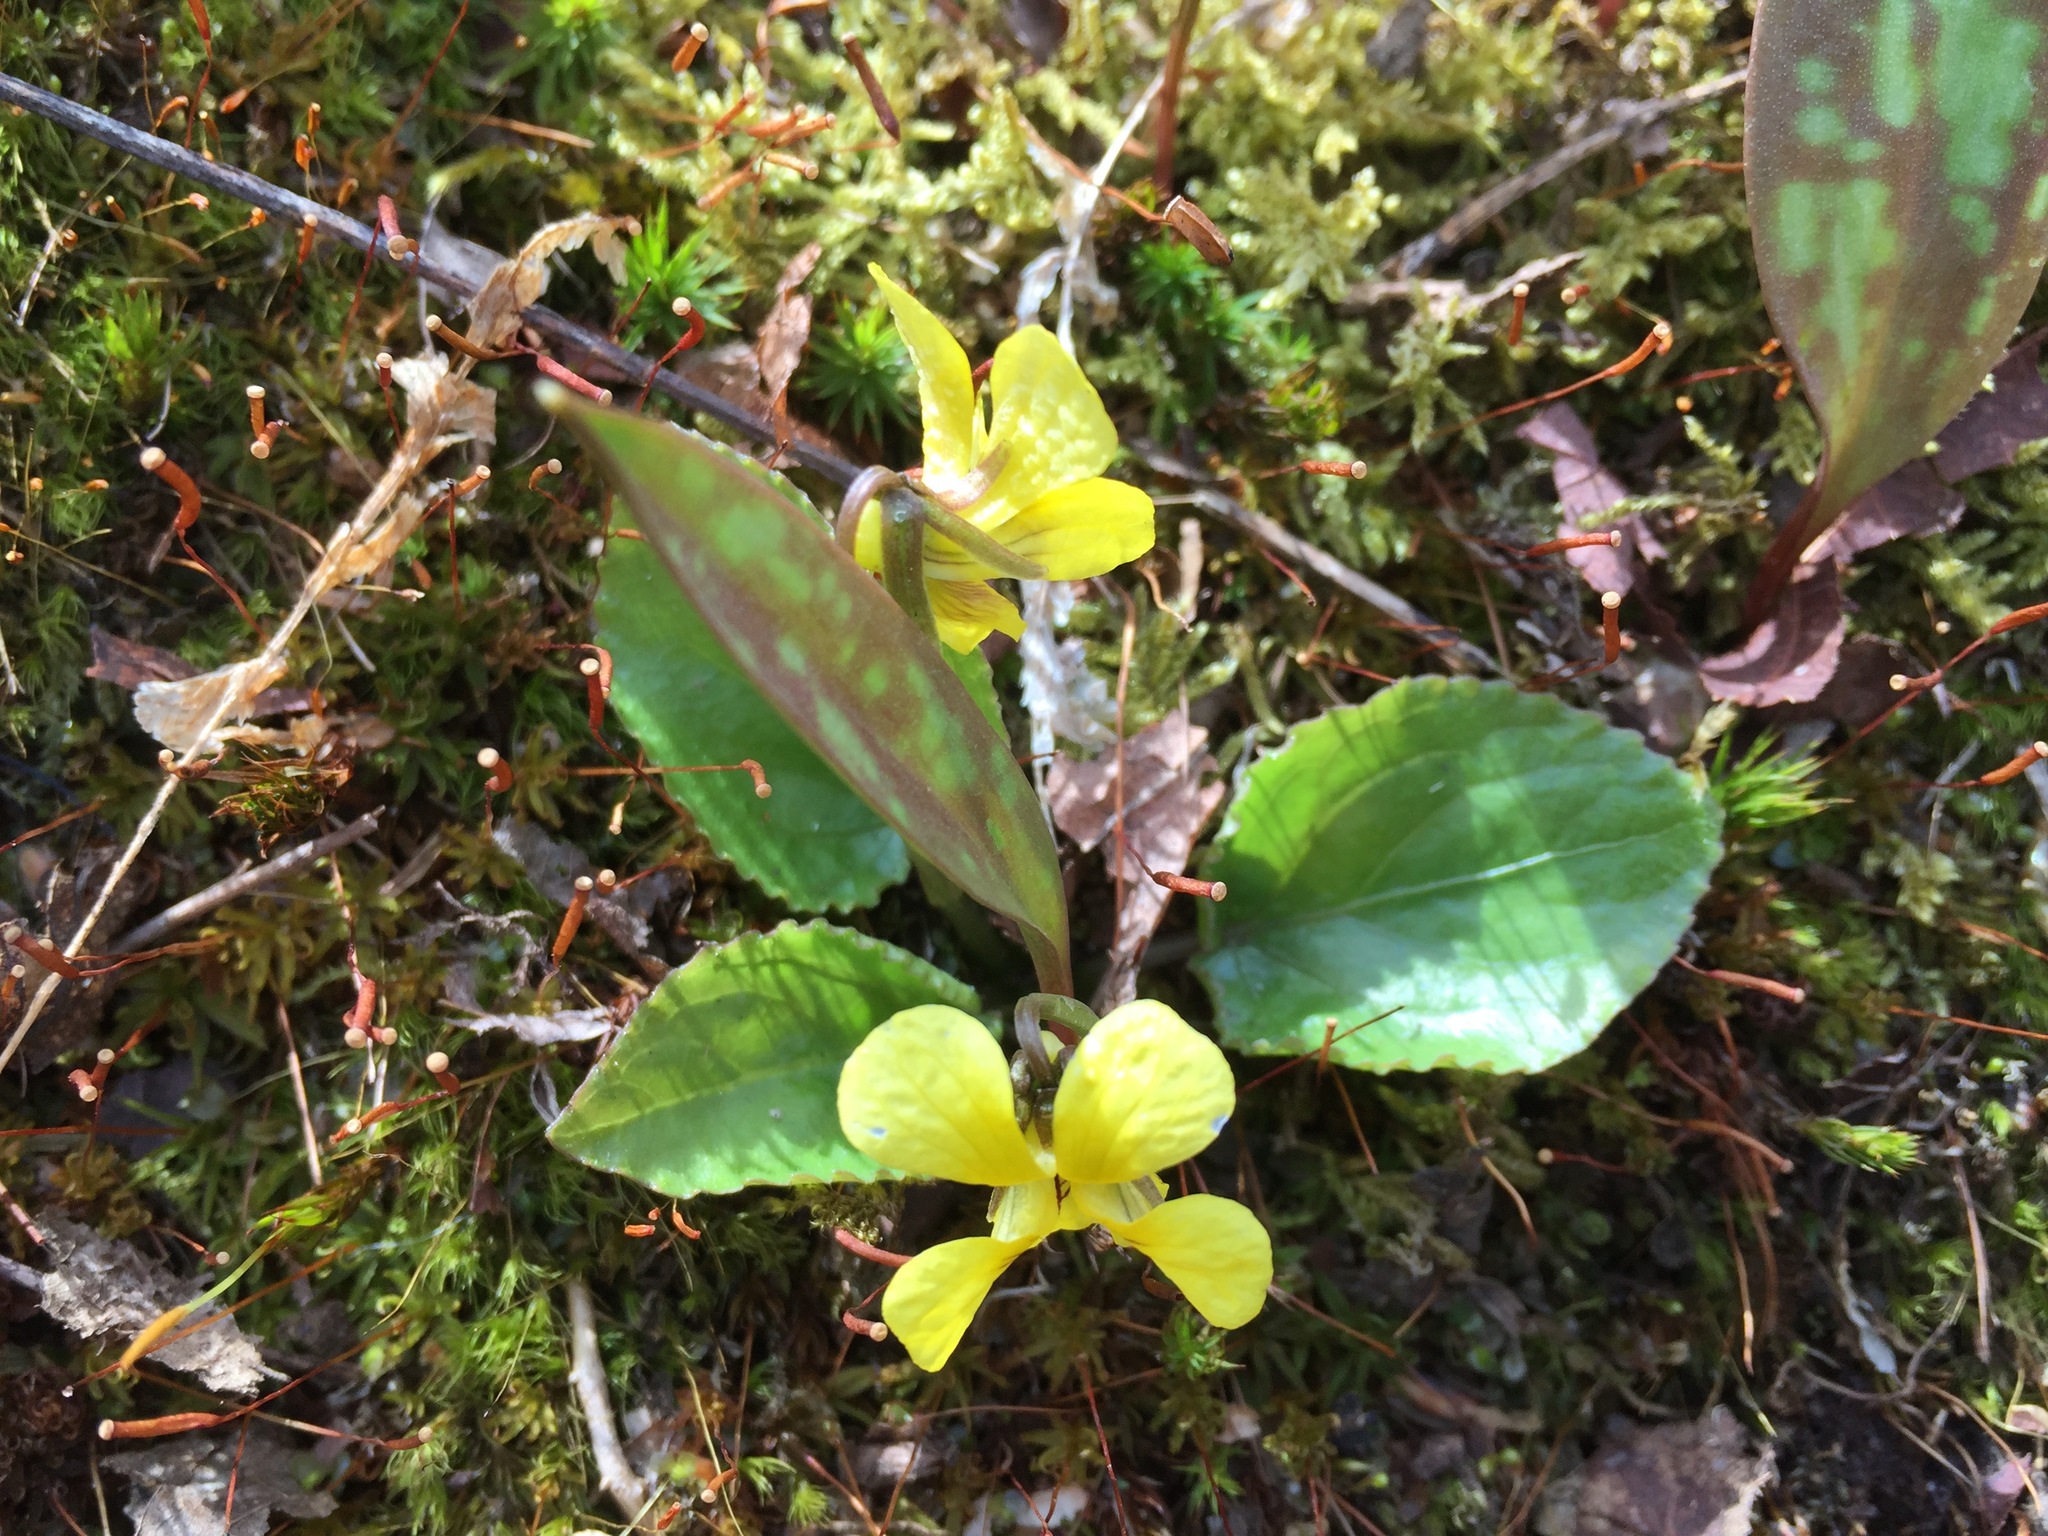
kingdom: Plantae
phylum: Tracheophyta
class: Magnoliopsida
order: Malpighiales
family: Violaceae
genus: Viola
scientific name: Viola rotundifolia
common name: Early yellow violet
